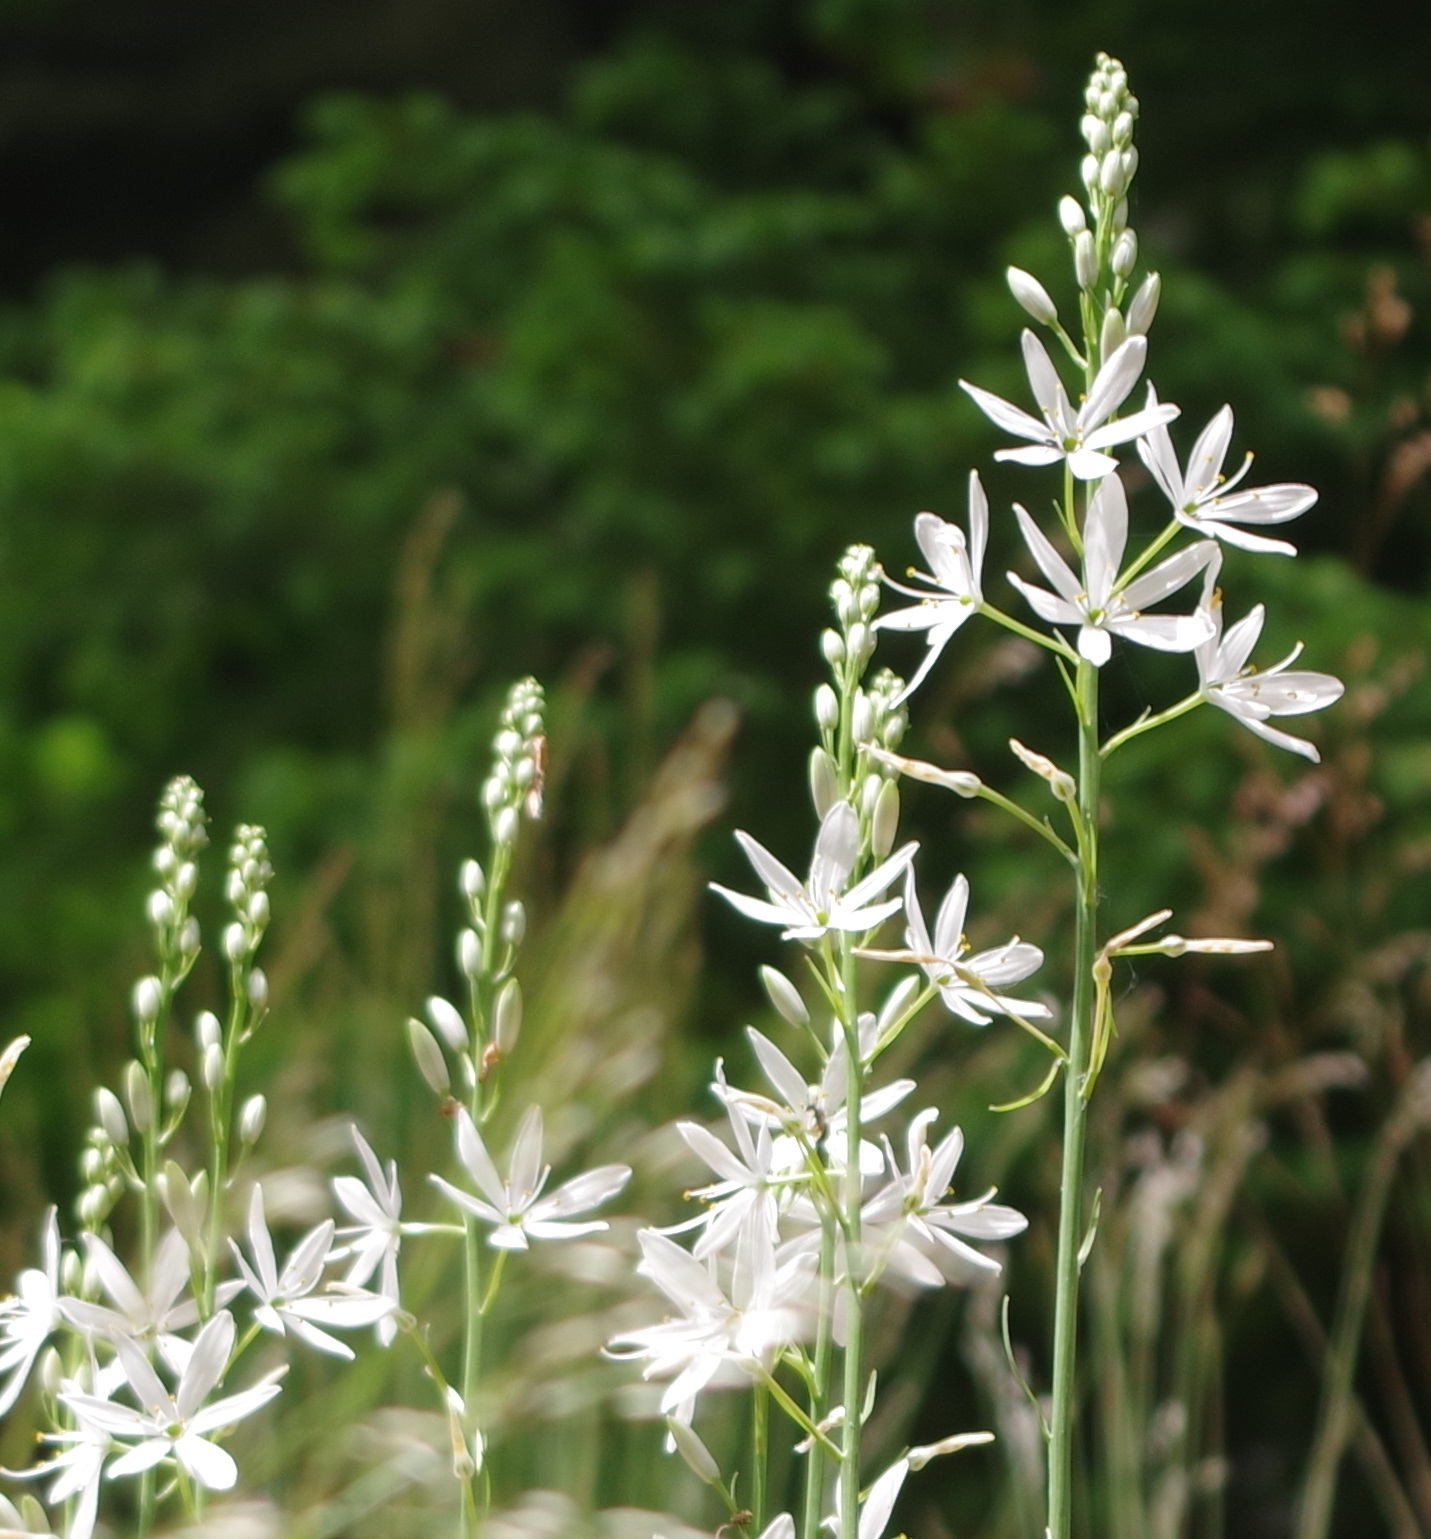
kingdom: Plantae
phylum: Tracheophyta
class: Liliopsida
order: Asparagales
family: Asparagaceae
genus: Anthericum
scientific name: Anthericum liliago
